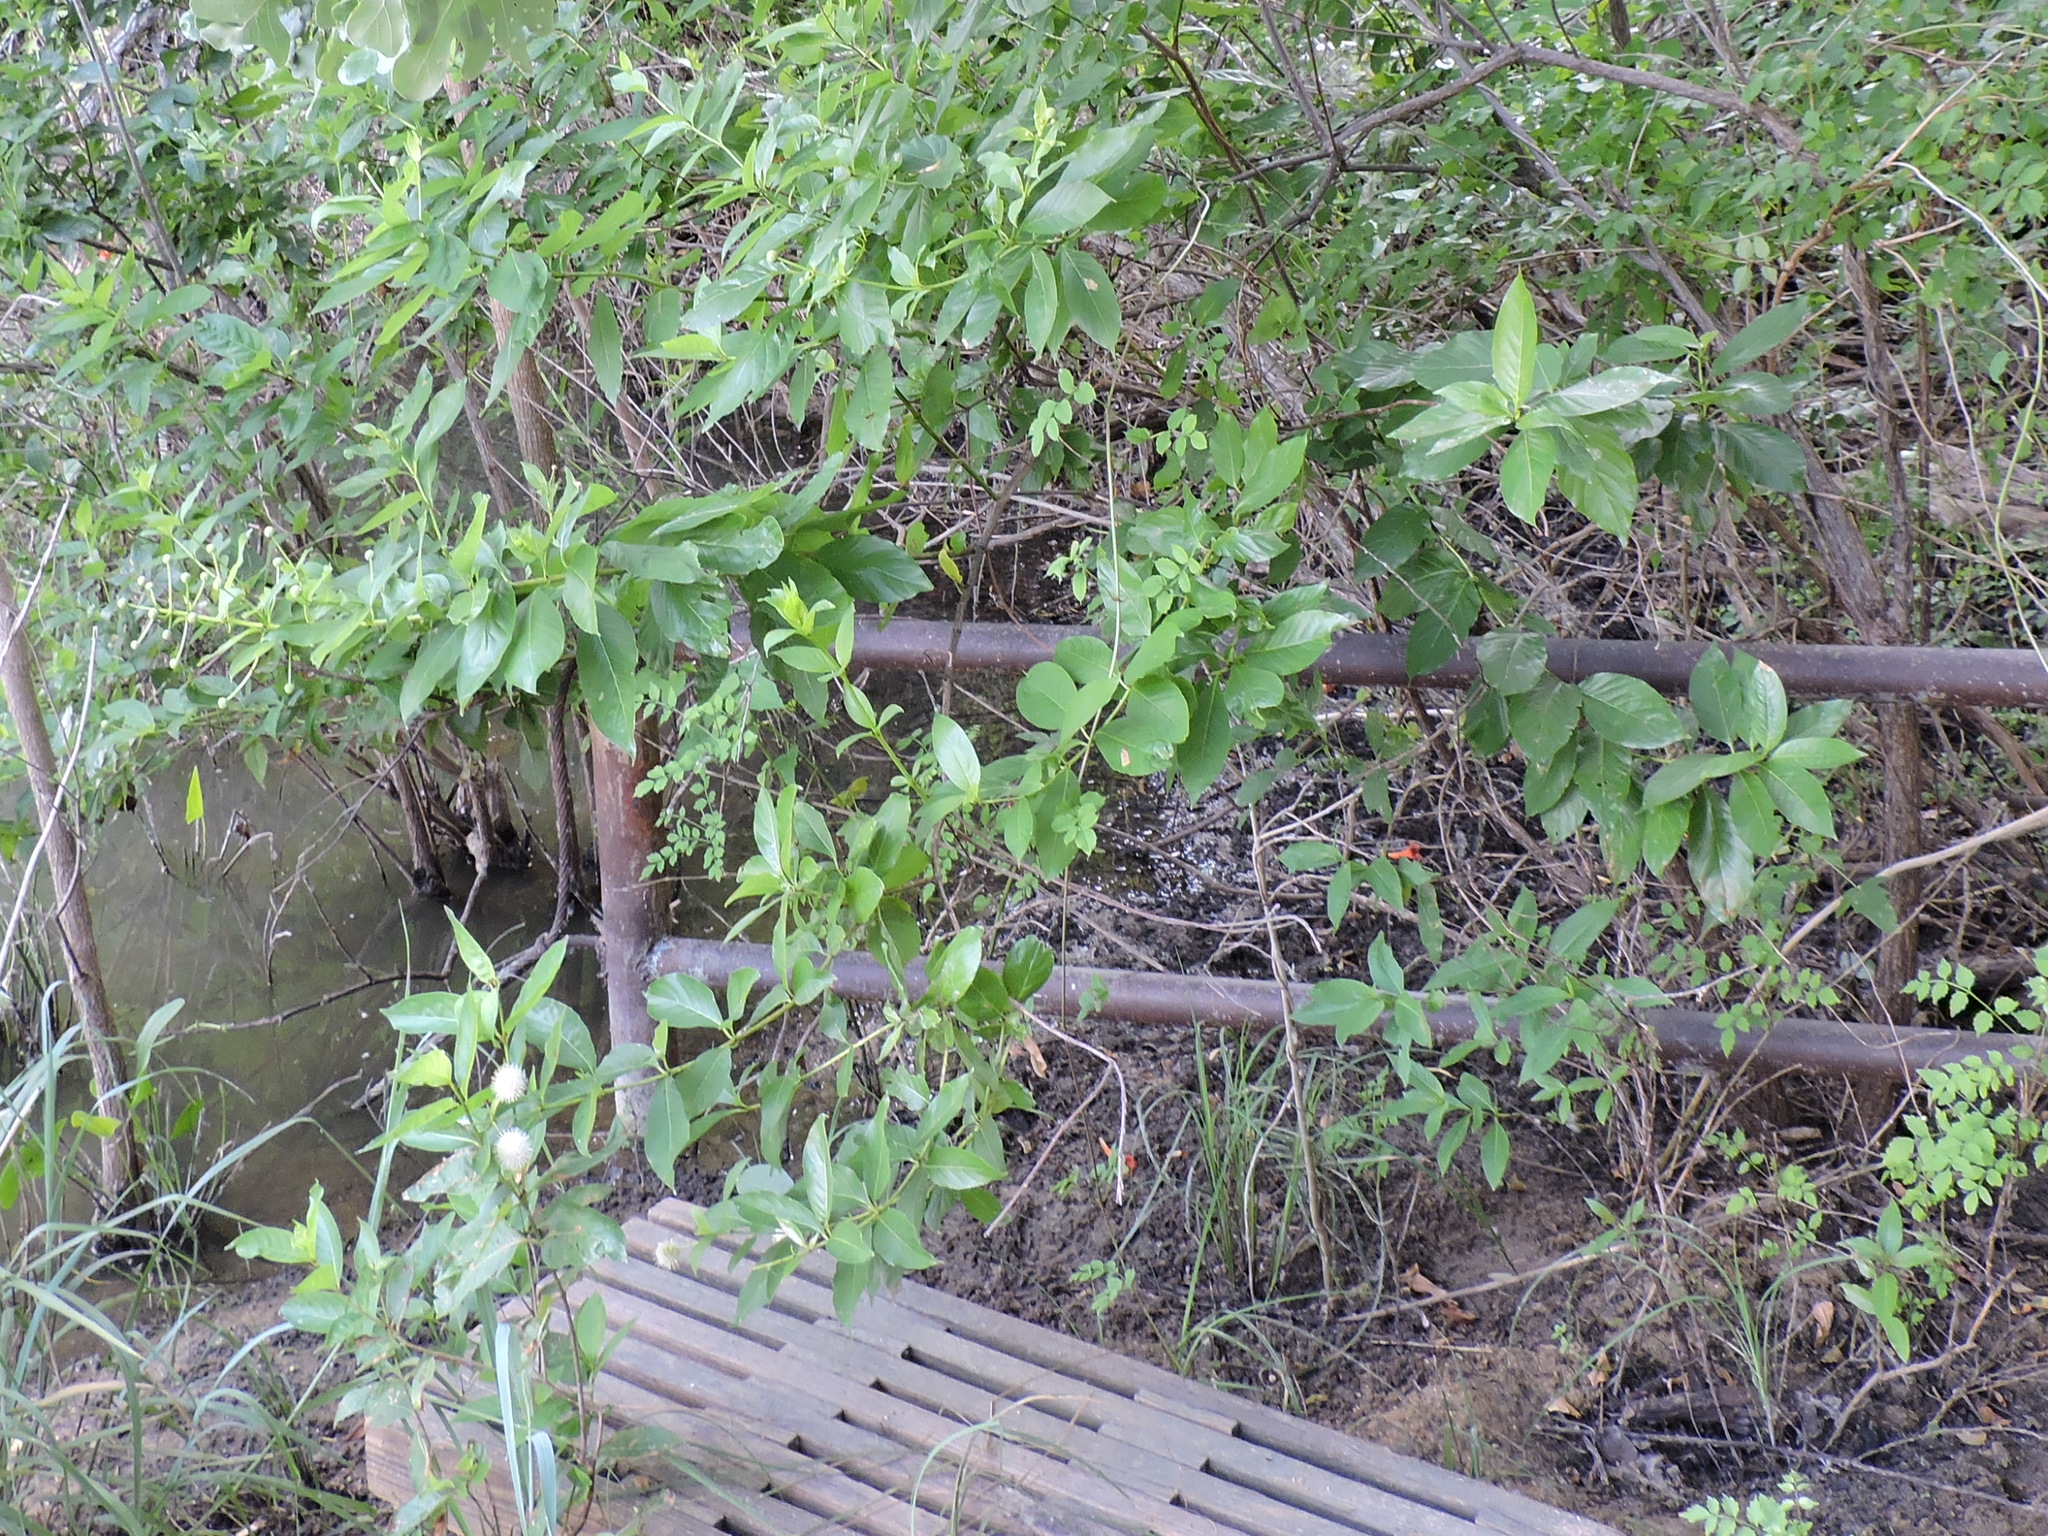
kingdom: Plantae
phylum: Tracheophyta
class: Magnoliopsida
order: Gentianales
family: Rubiaceae
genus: Cephalanthus
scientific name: Cephalanthus occidentalis
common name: Button-willow
